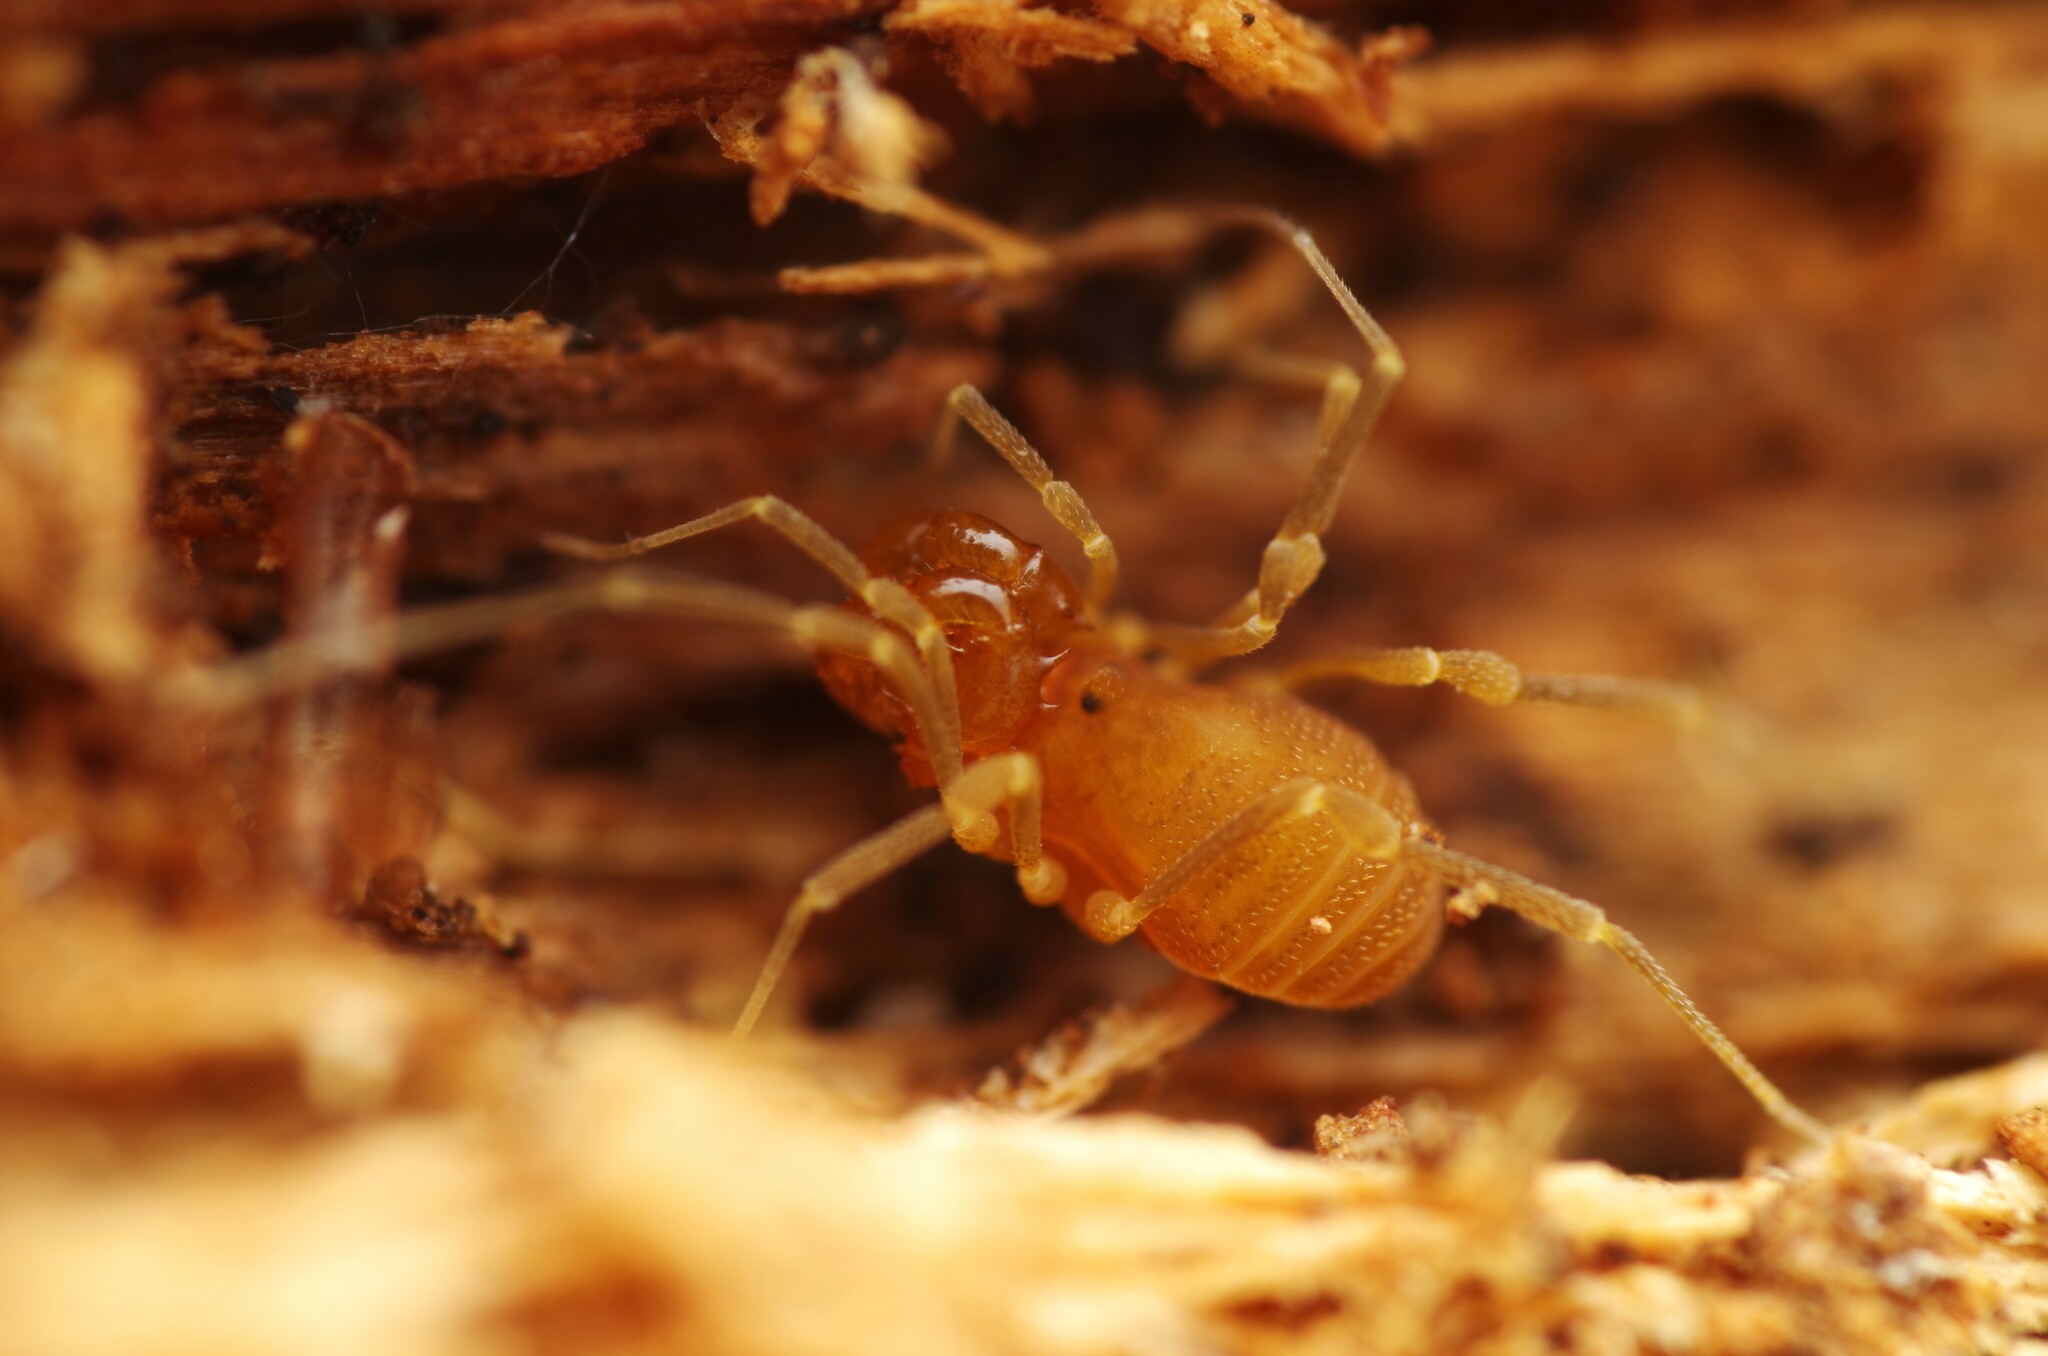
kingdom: Animalia
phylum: Arthropoda
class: Arachnida
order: Opiliones
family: Cladonychiidae
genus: Holoscotolemon
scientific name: Holoscotolemon querilhaci
